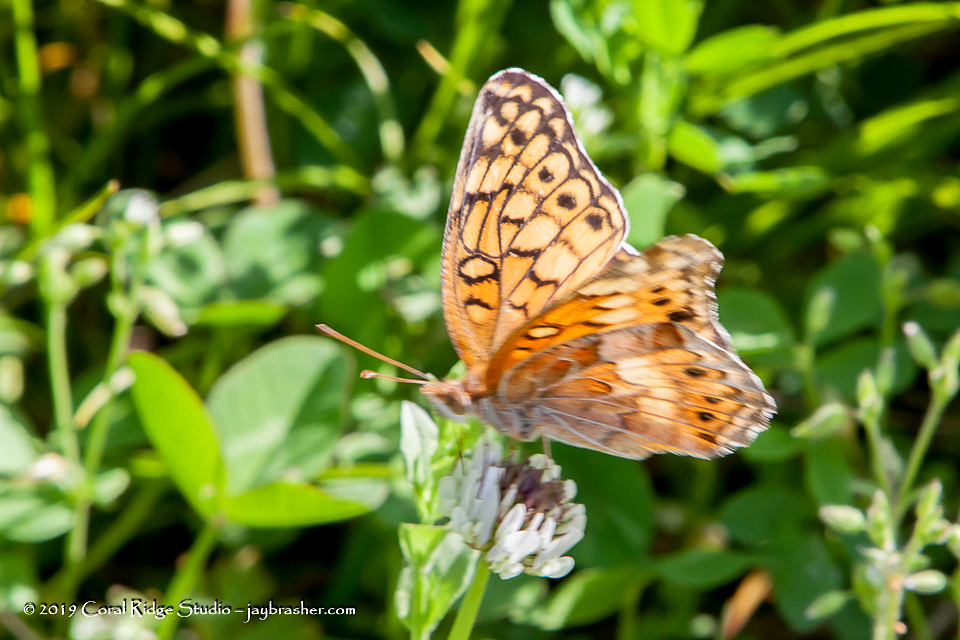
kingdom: Animalia
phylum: Arthropoda
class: Insecta
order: Lepidoptera
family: Nymphalidae
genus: Euptoieta
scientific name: Euptoieta claudia
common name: Variegated fritillary
